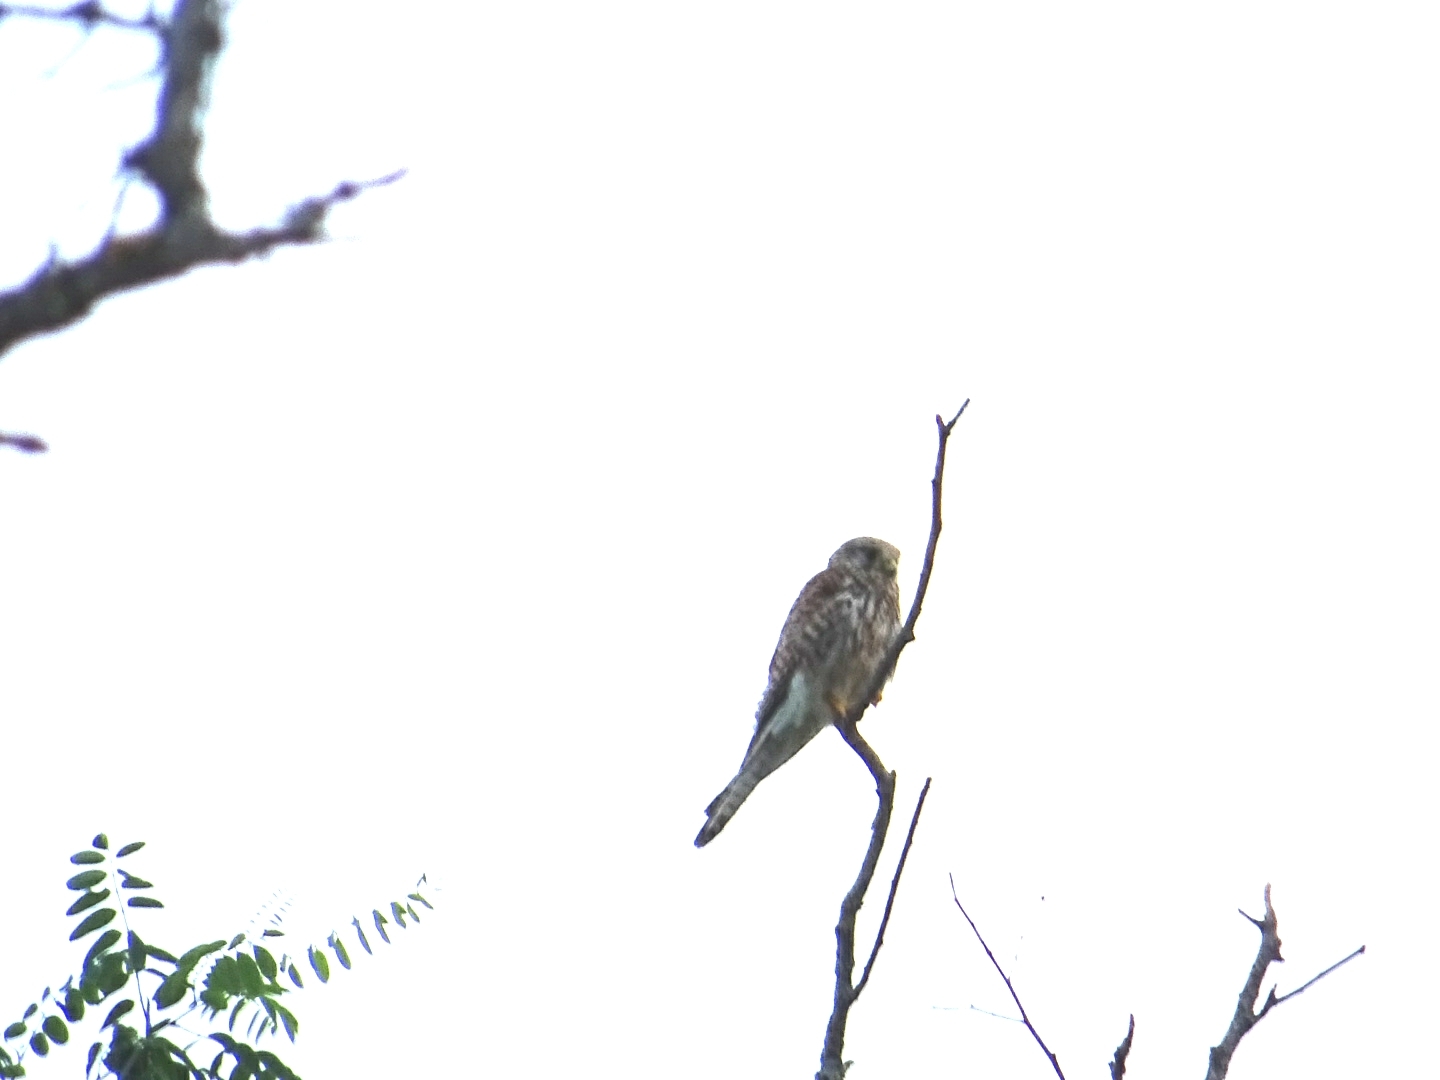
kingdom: Animalia
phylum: Chordata
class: Aves
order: Falconiformes
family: Falconidae
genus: Falco
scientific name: Falco tinnunculus
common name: Common kestrel
